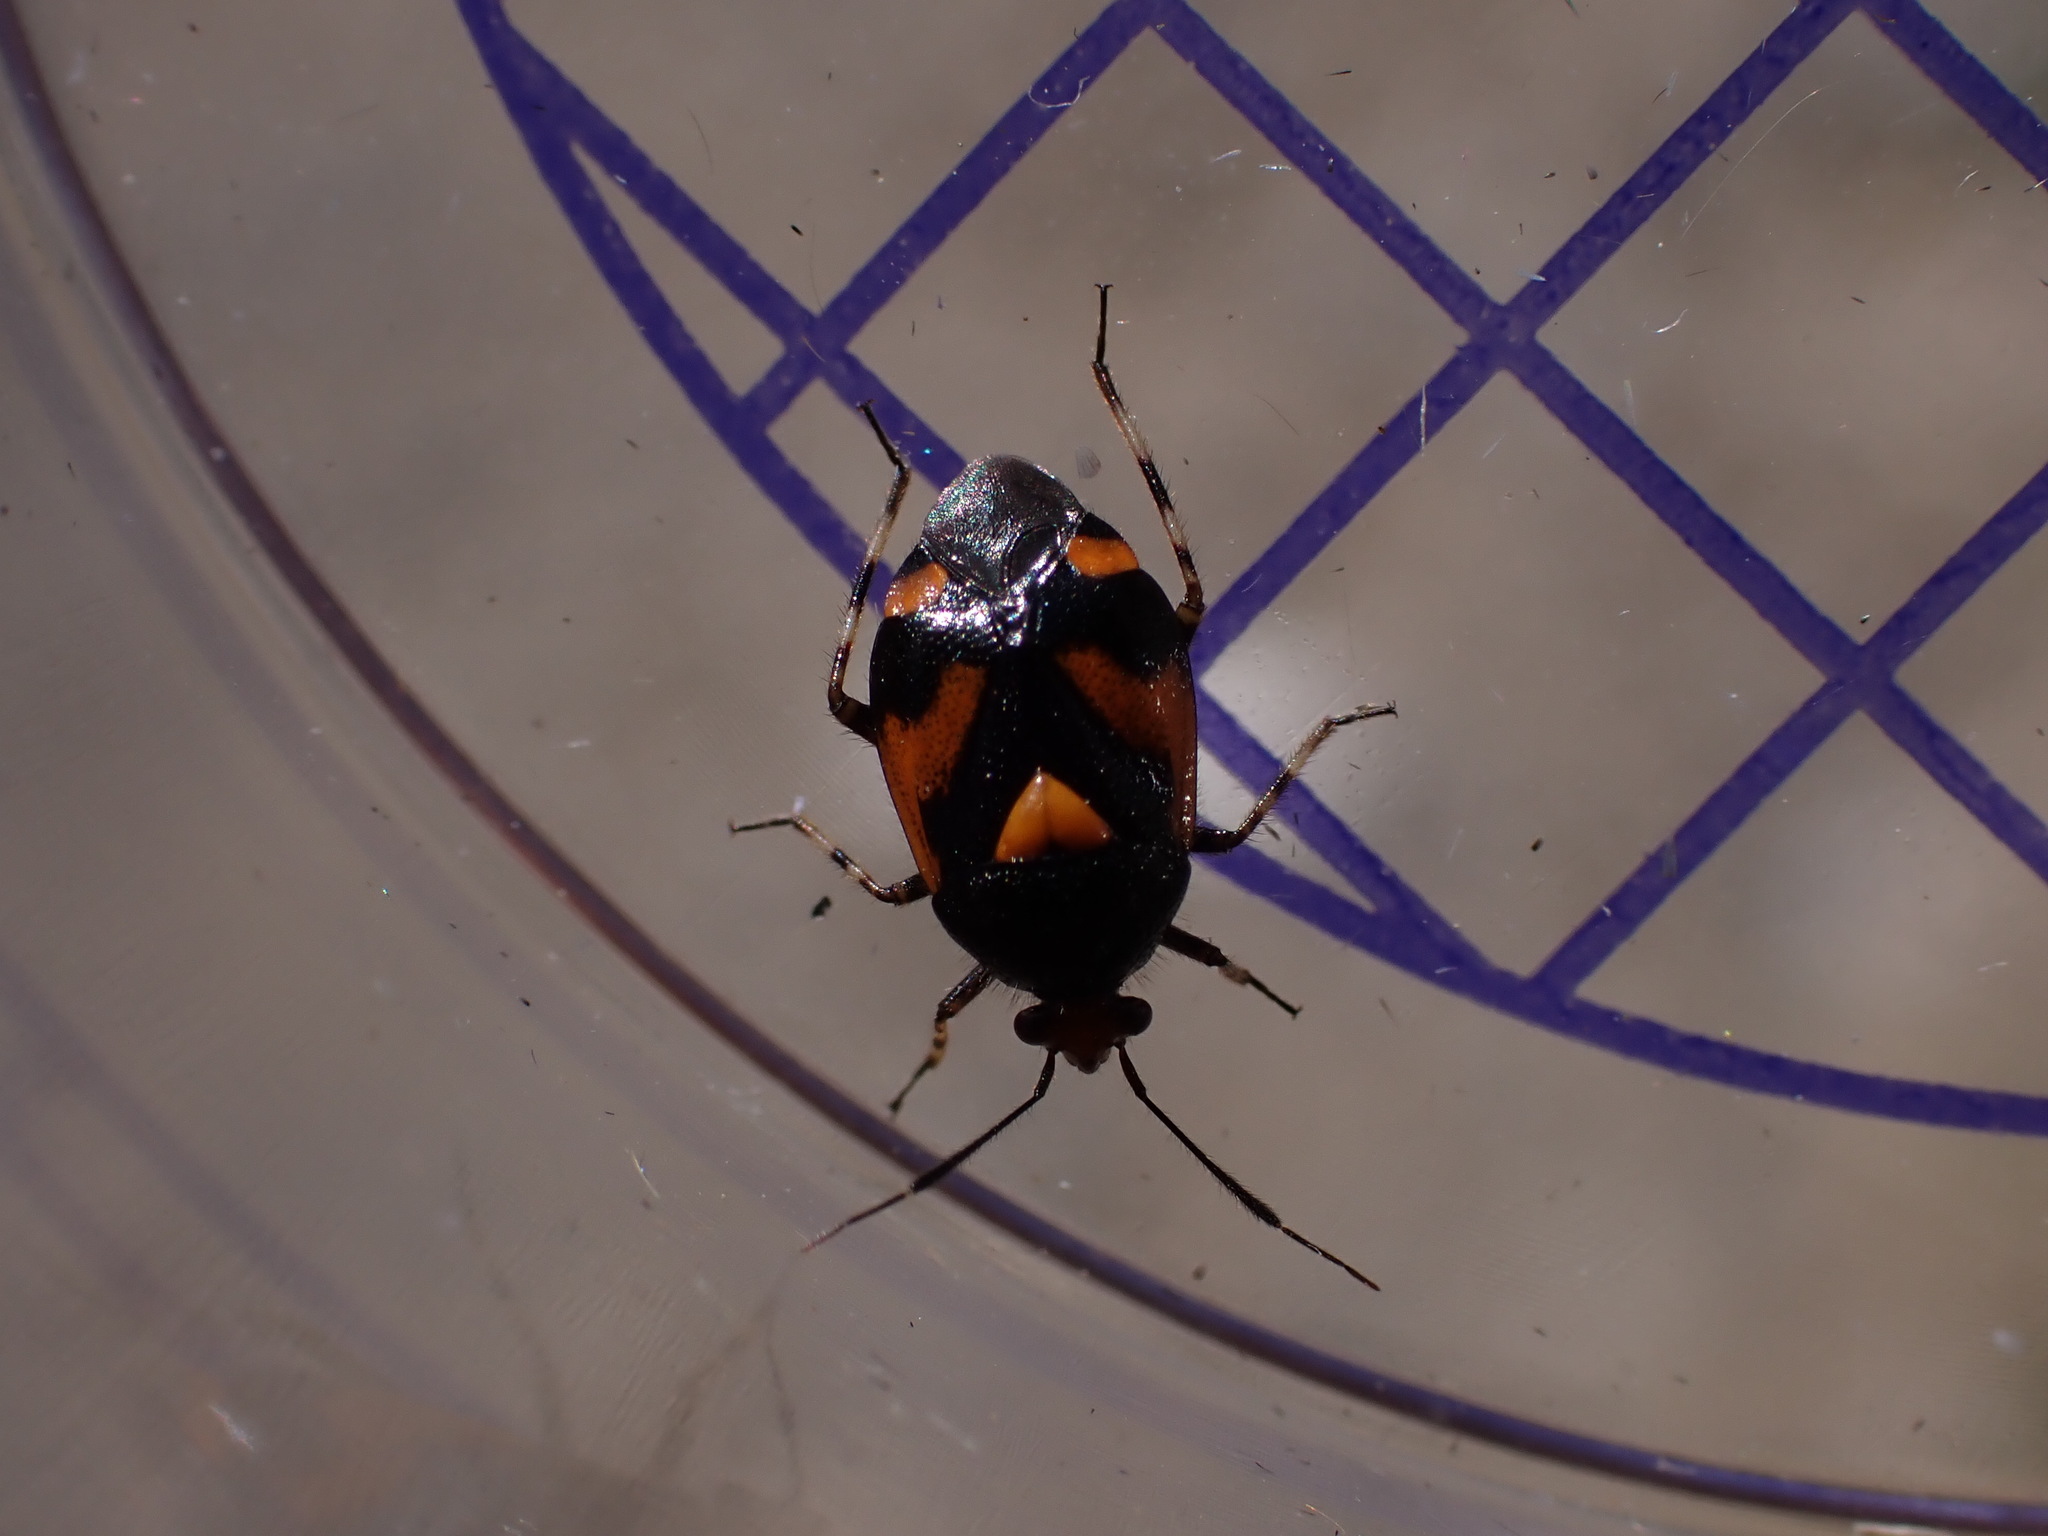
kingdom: Animalia
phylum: Arthropoda
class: Insecta
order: Hemiptera
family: Miridae
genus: Deraeocoris
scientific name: Deraeocoris schach
